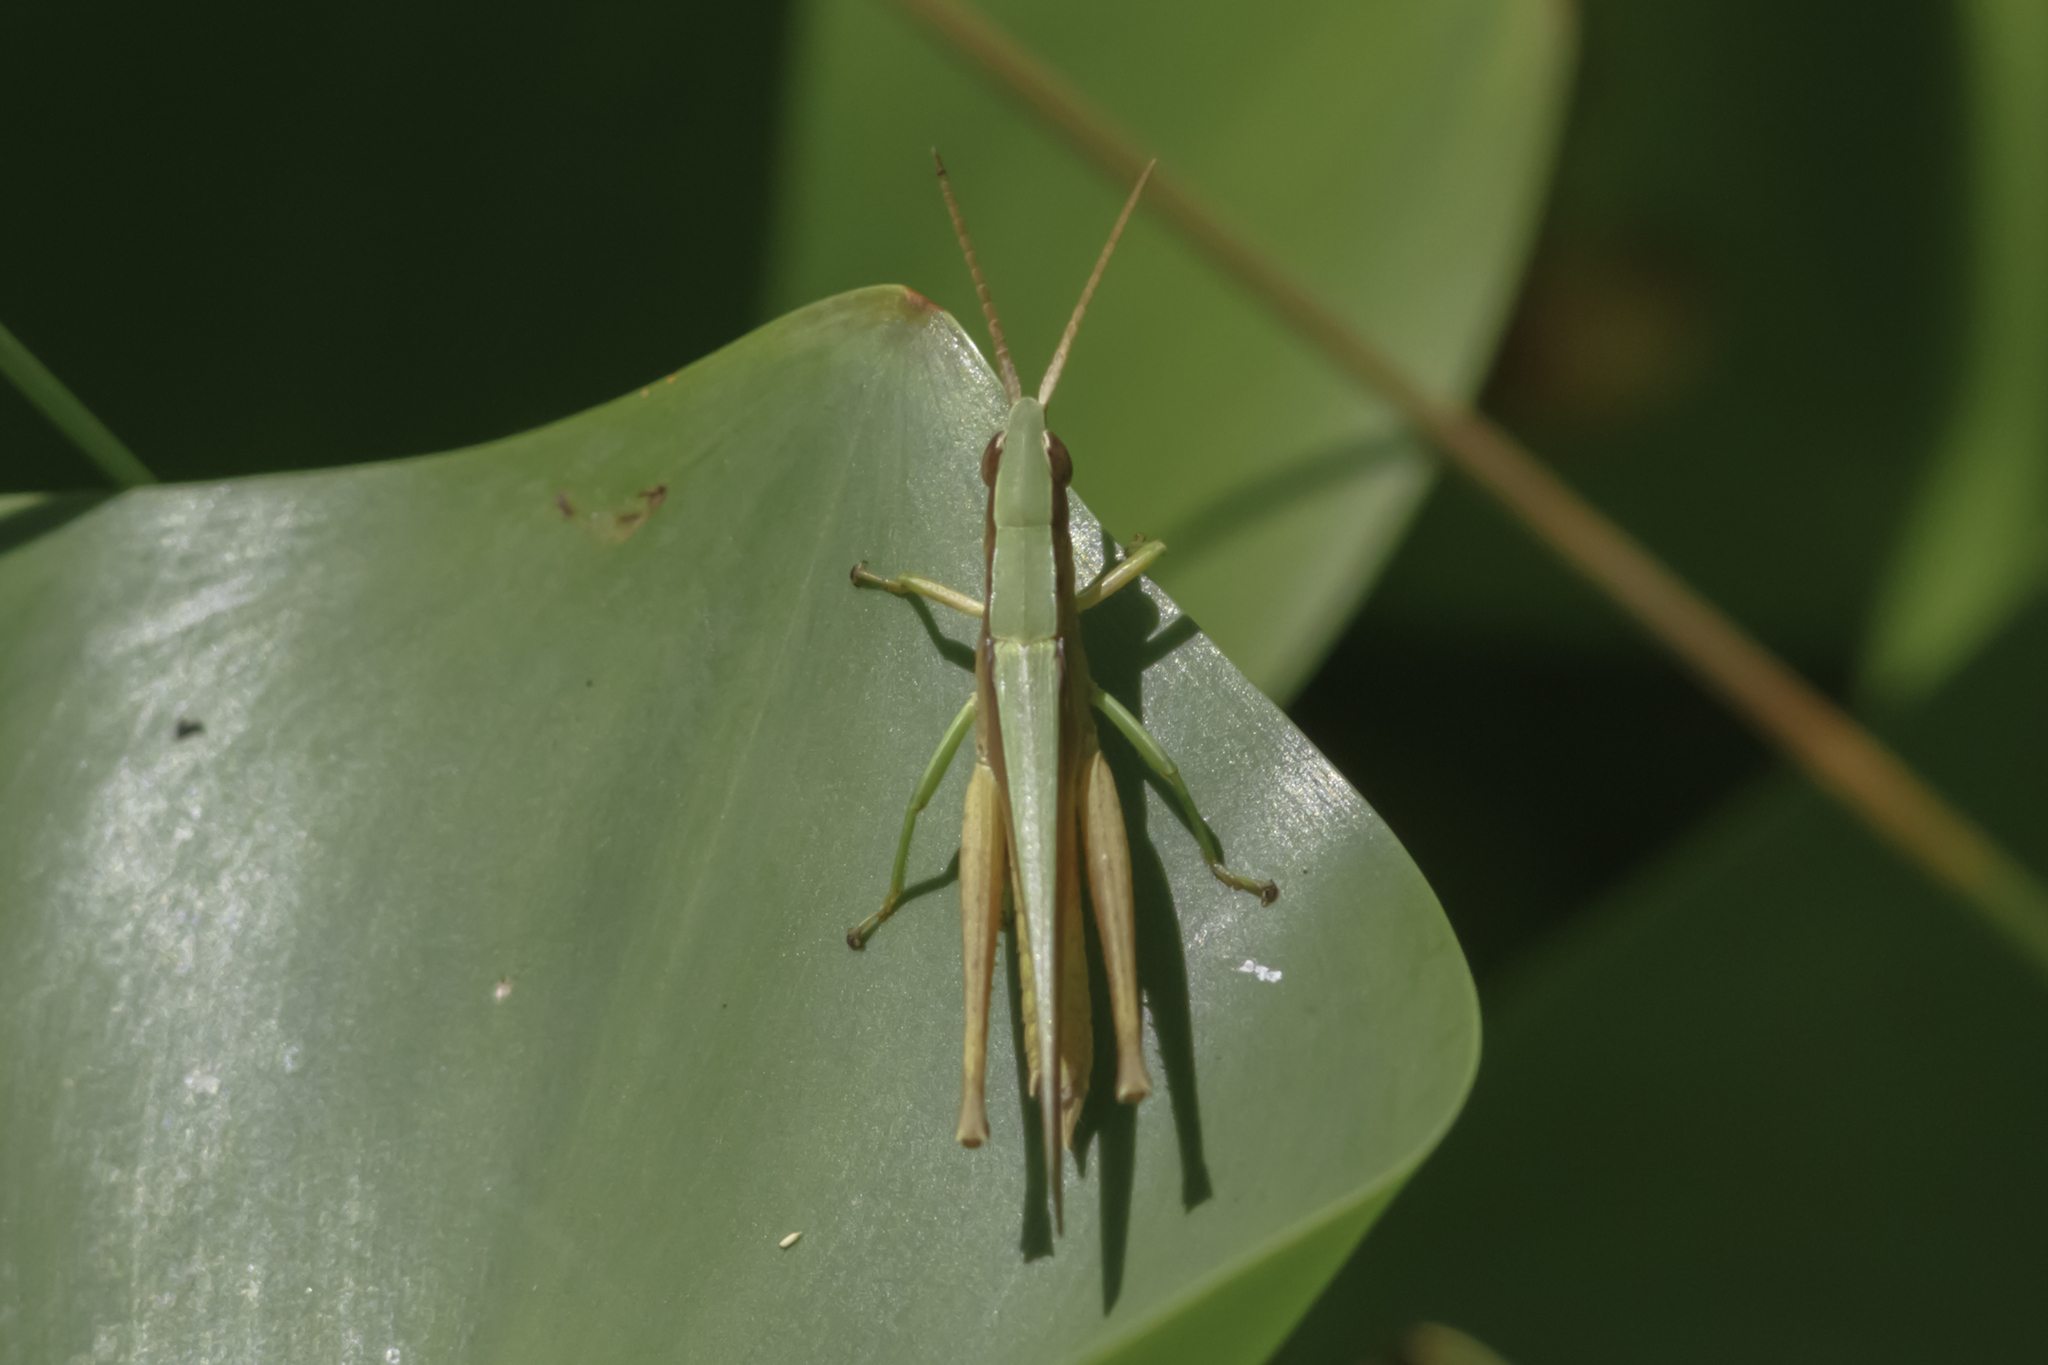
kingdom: Animalia
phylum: Arthropoda
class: Insecta
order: Orthoptera
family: Acrididae
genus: Metaleptea
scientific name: Metaleptea adspersa
